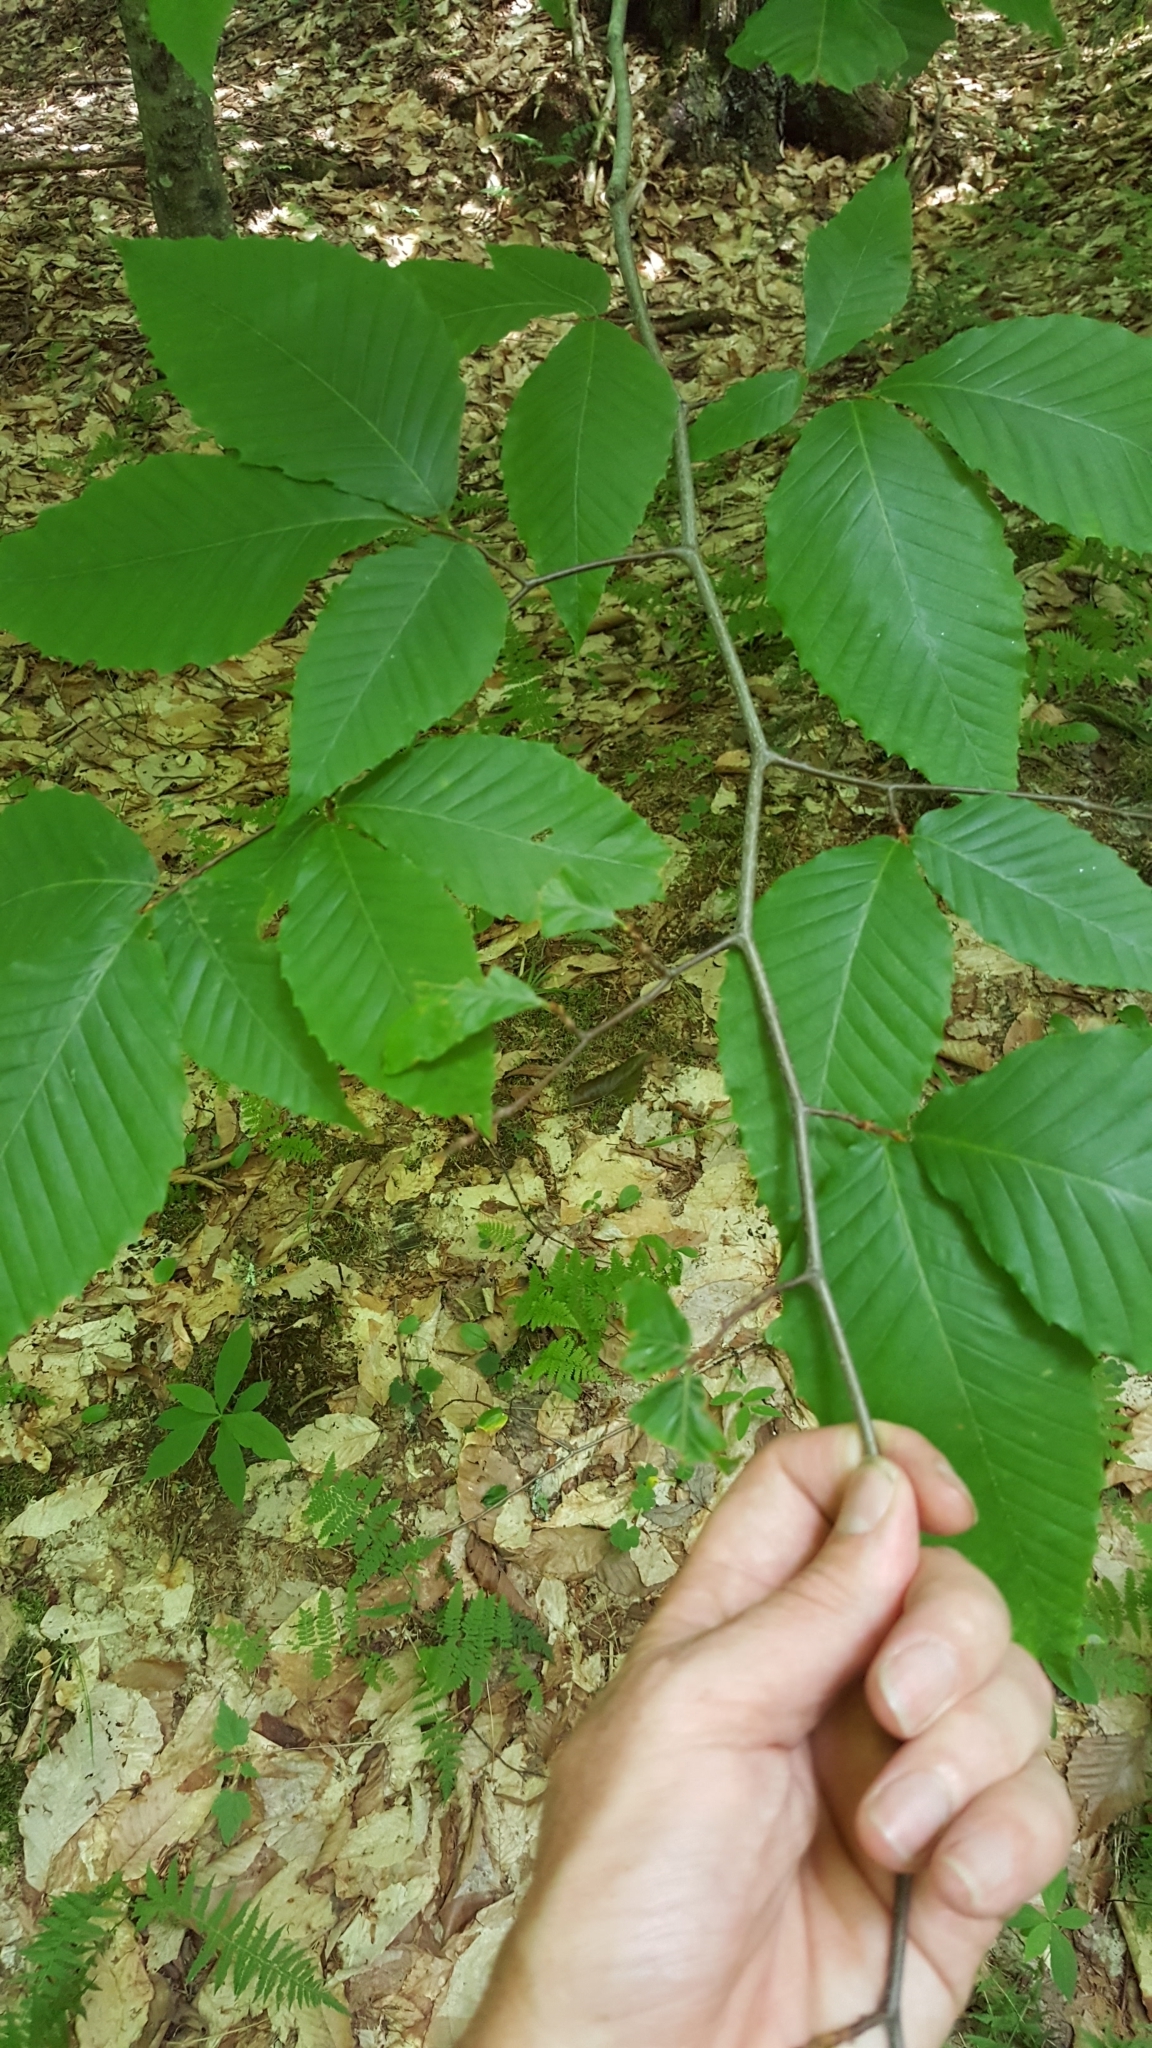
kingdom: Plantae
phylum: Tracheophyta
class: Magnoliopsida
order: Fagales
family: Fagaceae
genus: Fagus
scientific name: Fagus grandifolia
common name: American beech
